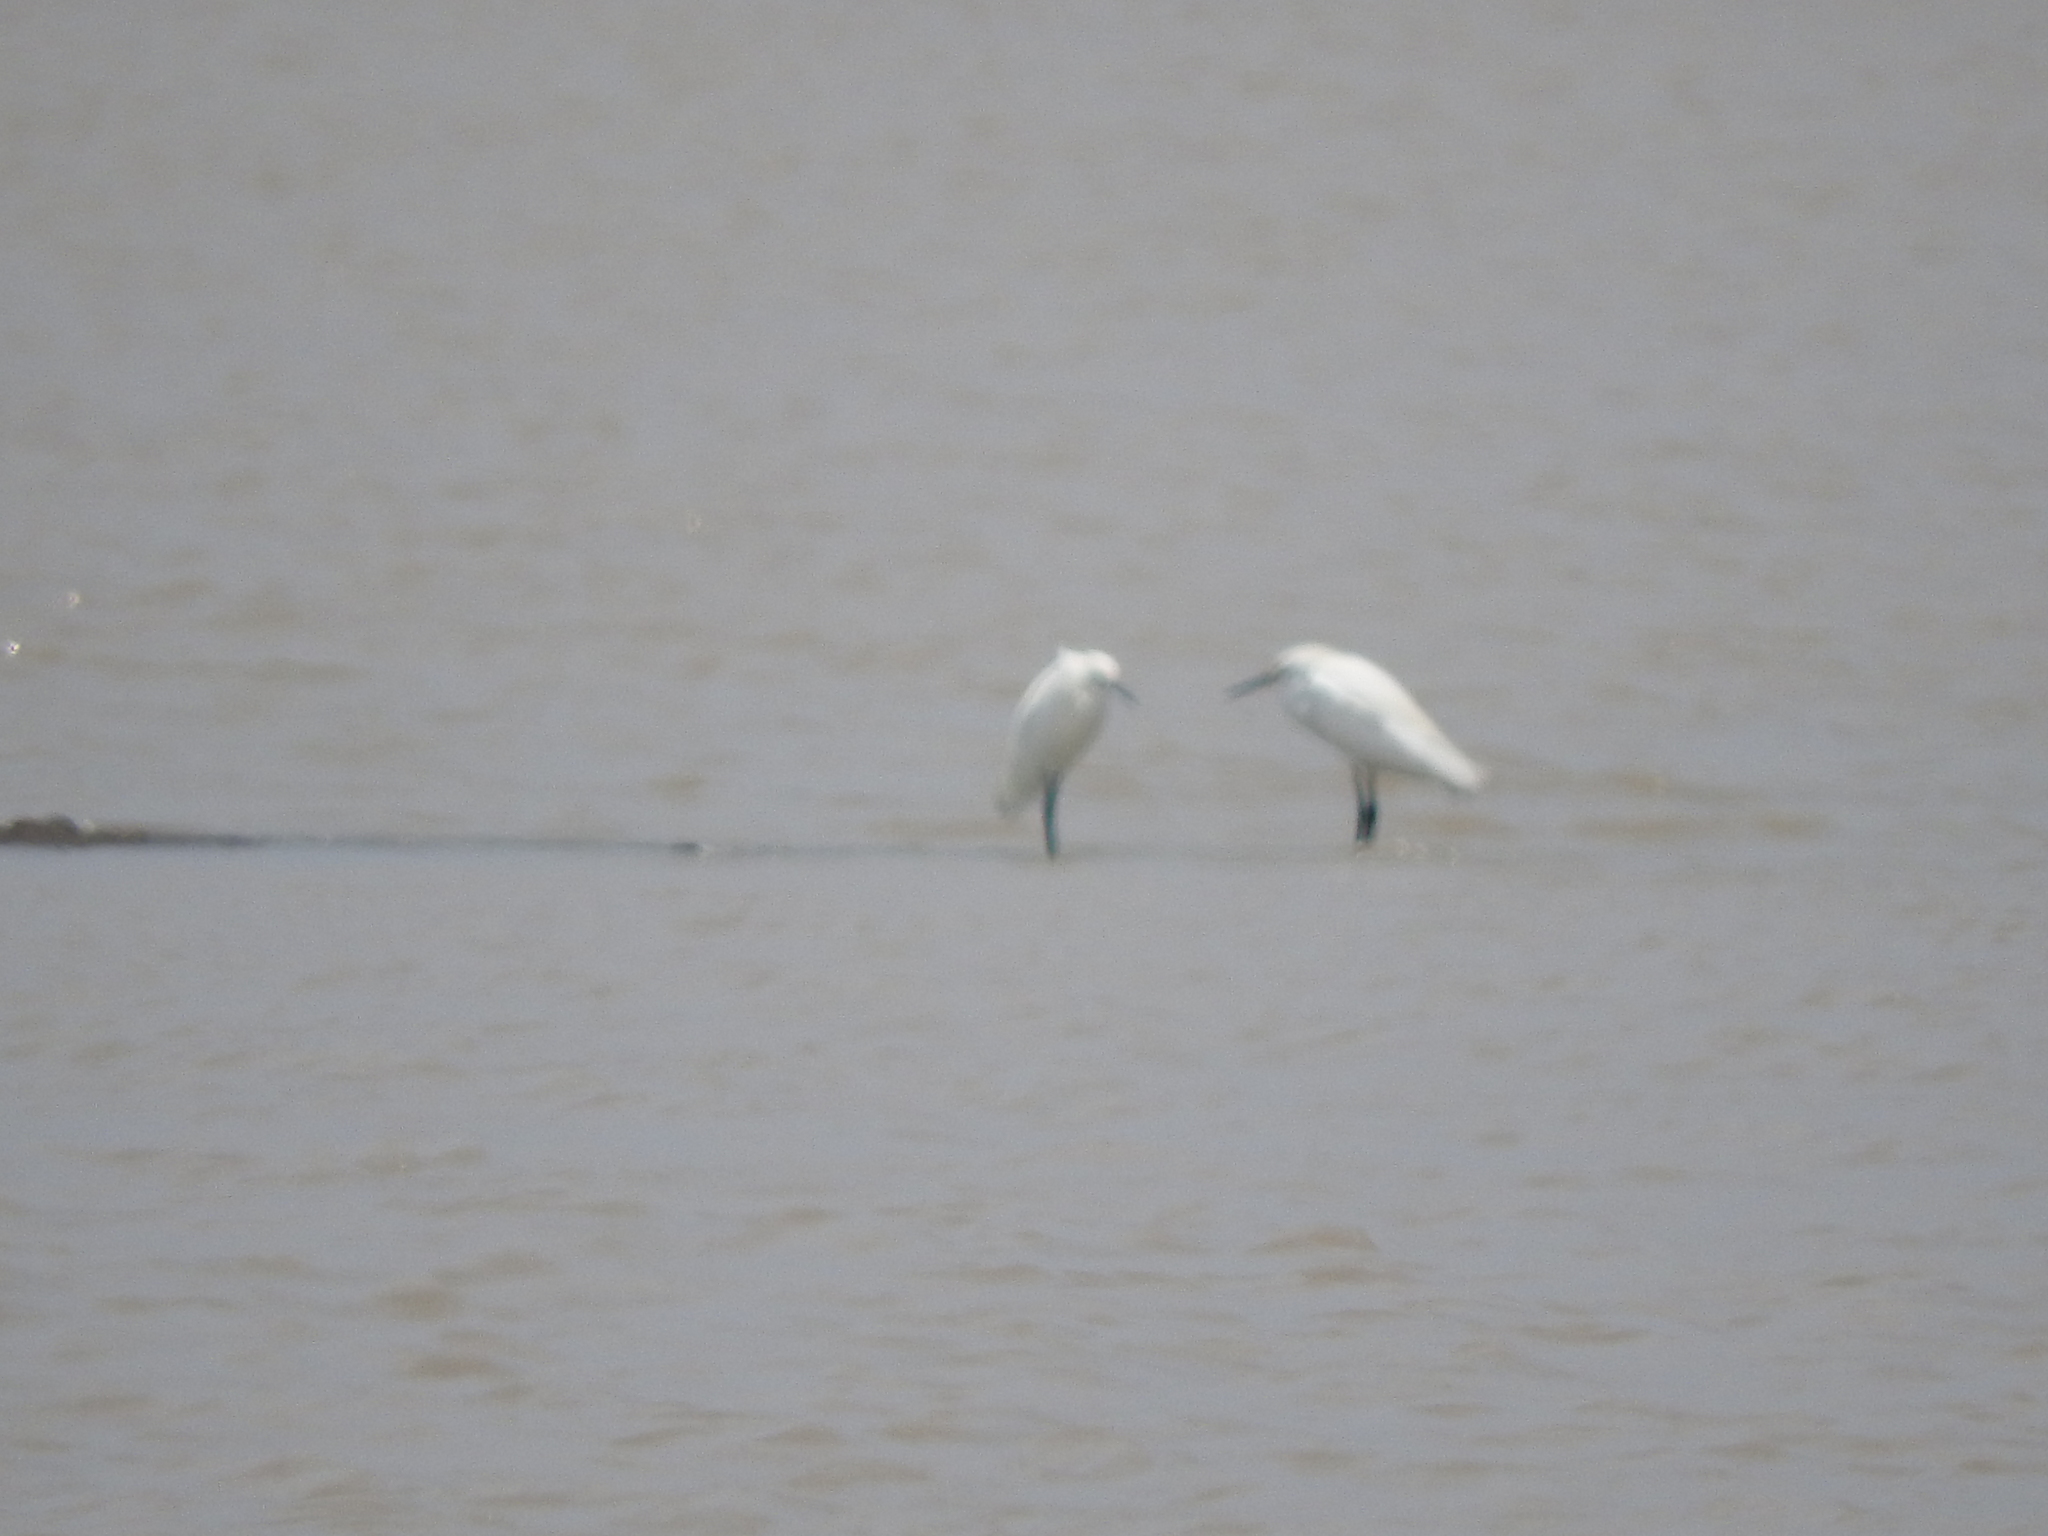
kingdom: Animalia
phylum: Chordata
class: Aves
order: Pelecaniformes
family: Ardeidae
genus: Egretta
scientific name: Egretta thula
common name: Snowy egret
